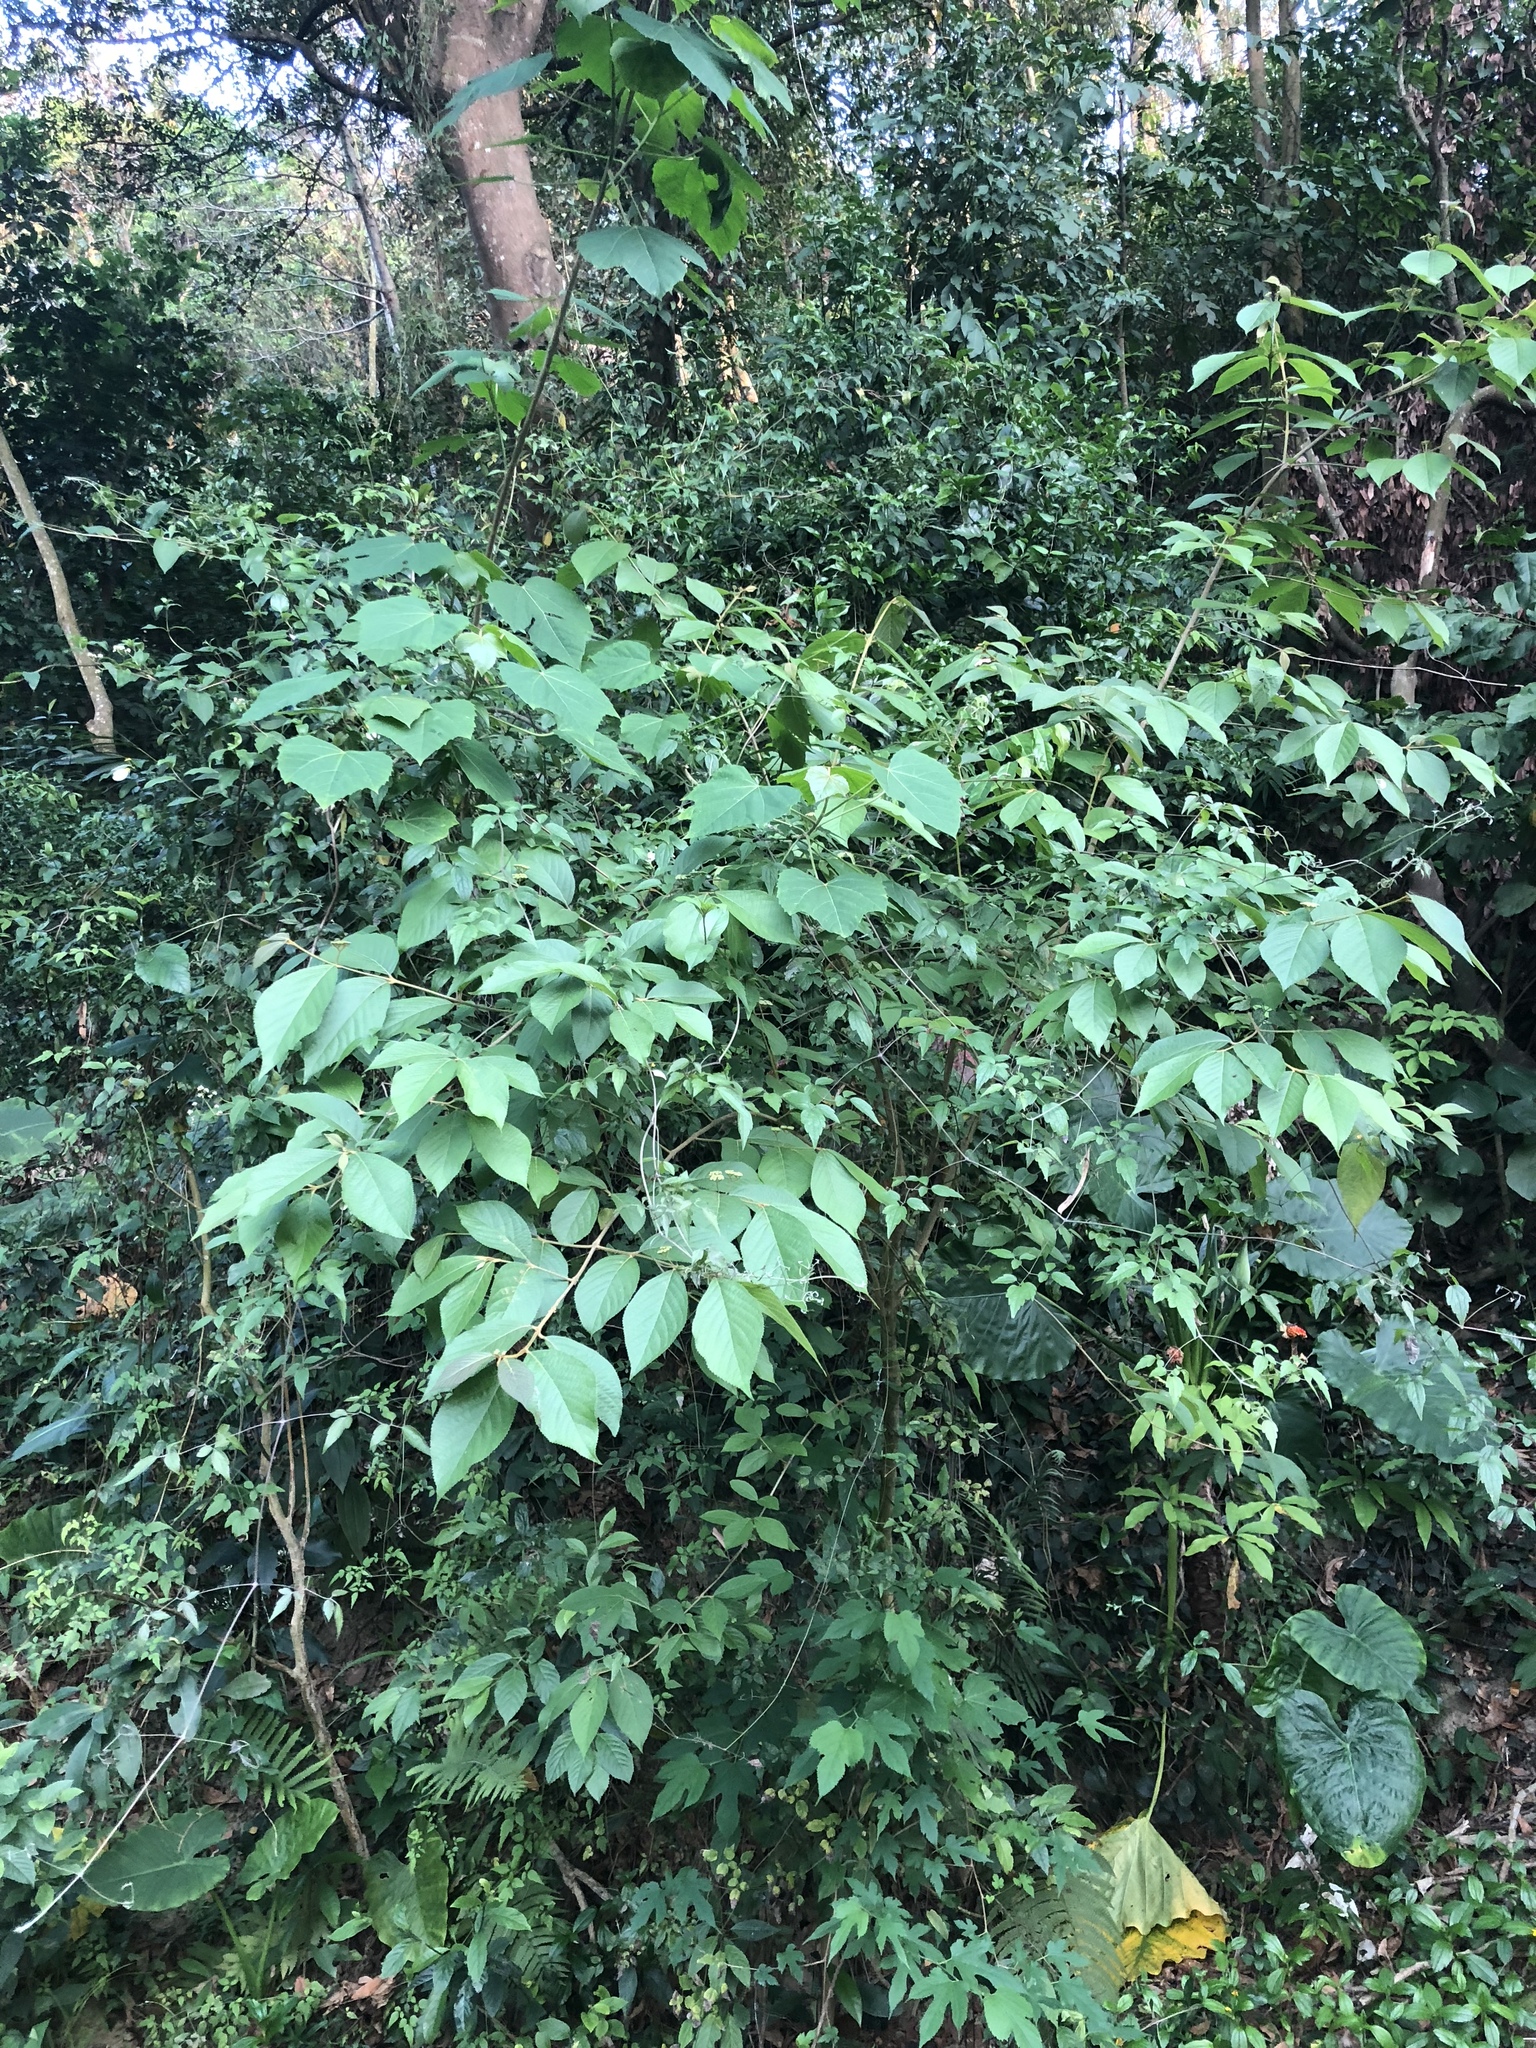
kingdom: Plantae
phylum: Tracheophyta
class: Magnoliopsida
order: Lamiales
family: Lamiaceae
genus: Callicarpa
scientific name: Callicarpa pedunculata
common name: Velvetleaf
